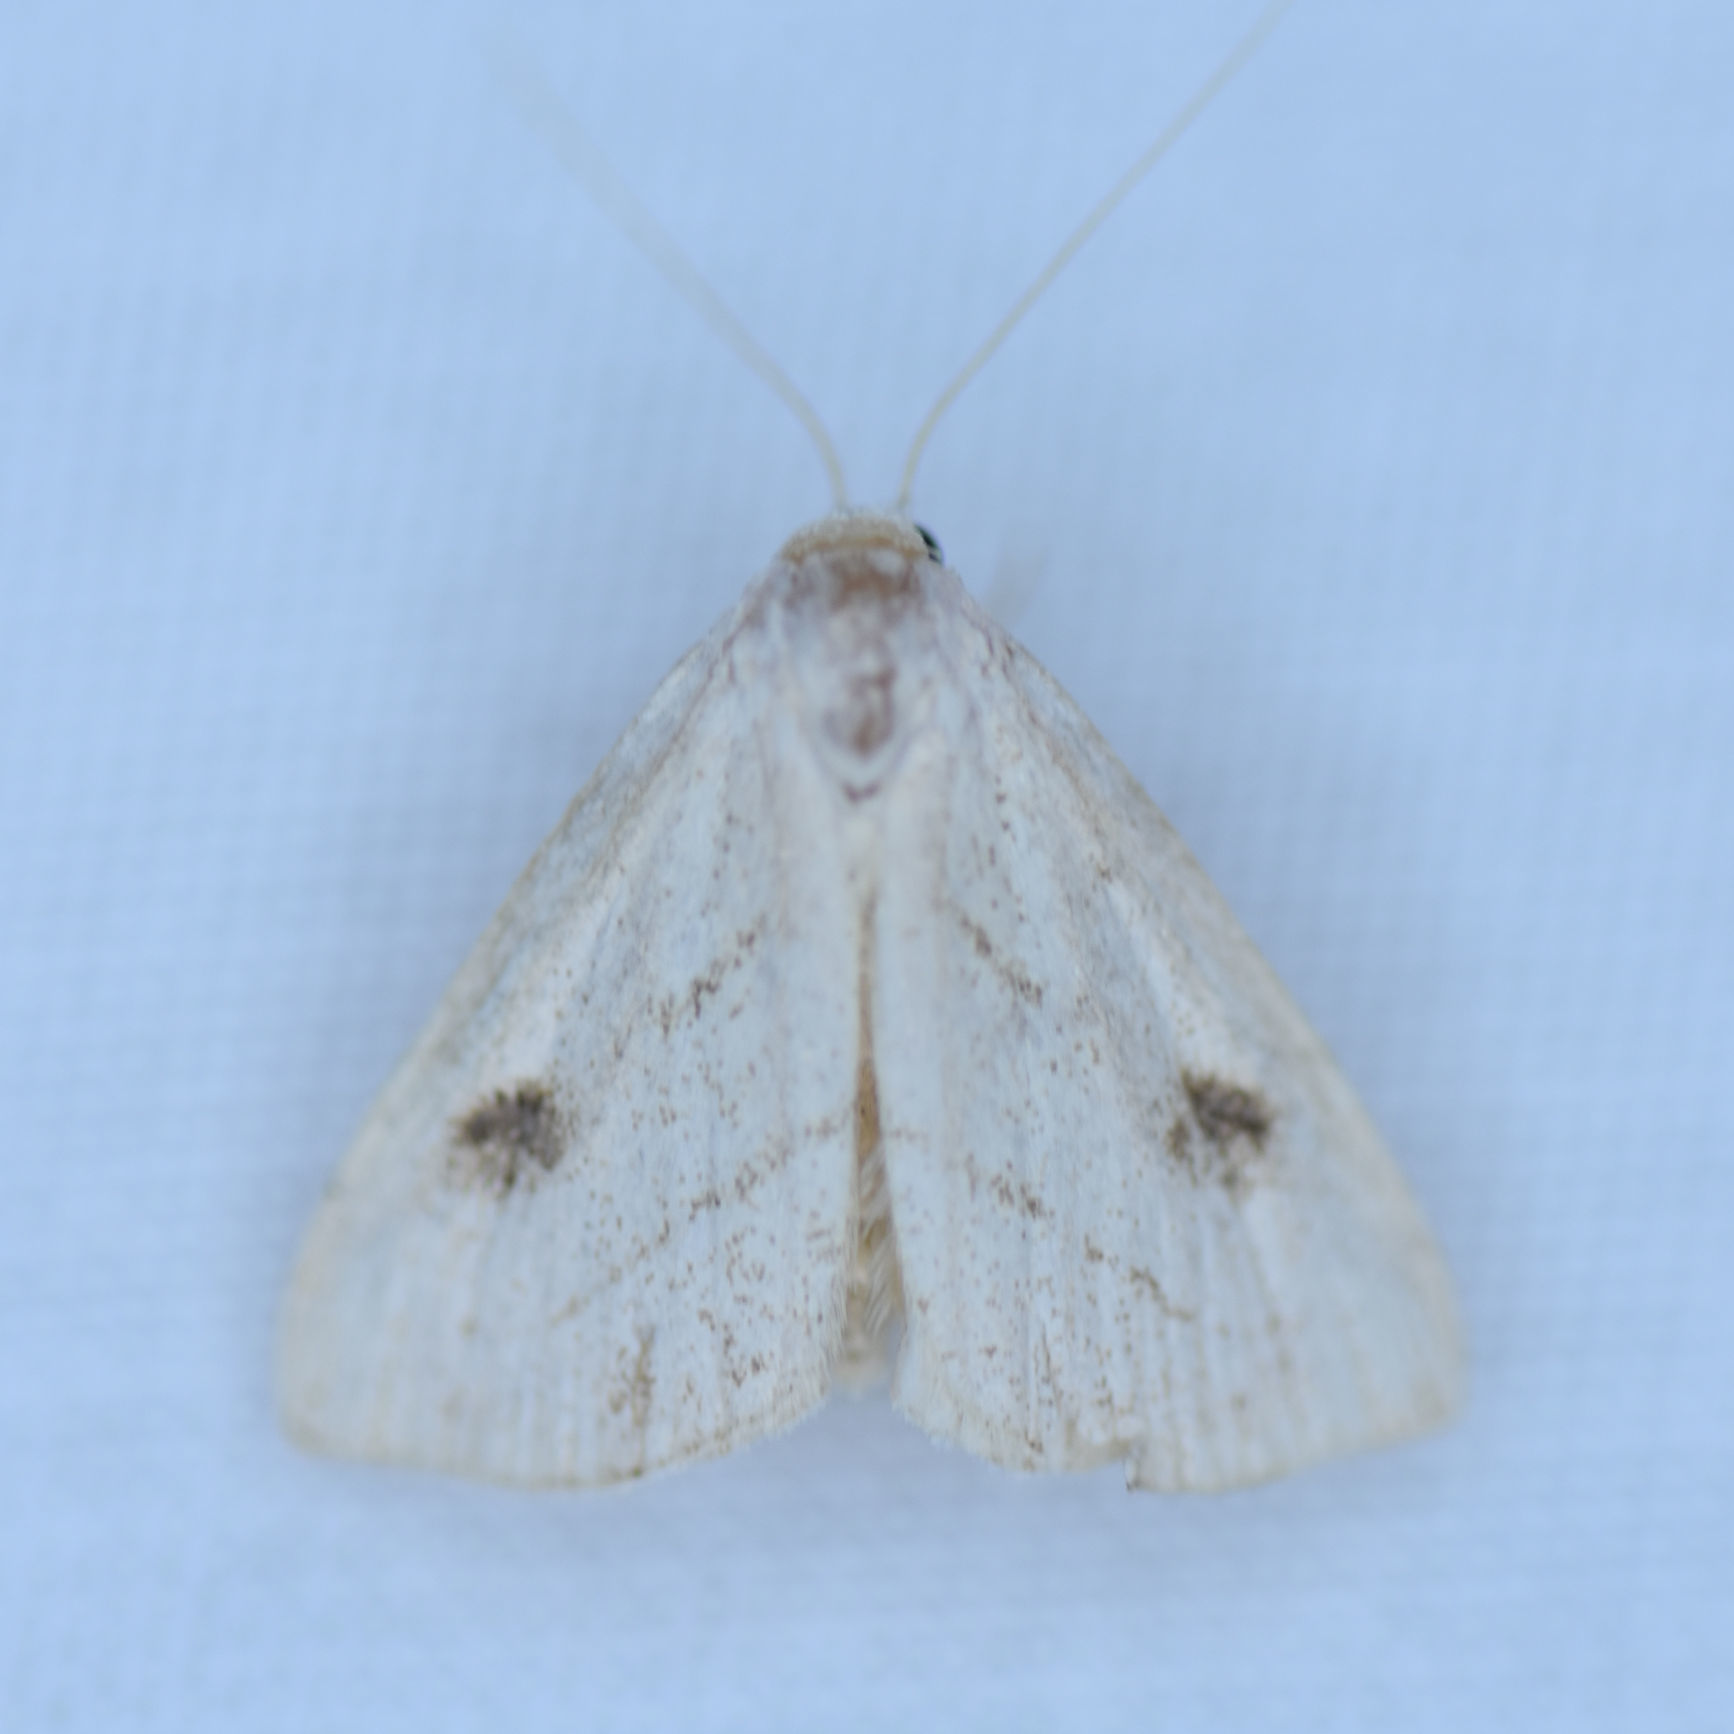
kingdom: Animalia
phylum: Arthropoda
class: Insecta
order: Lepidoptera
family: Erebidae
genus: Rivula
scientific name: Rivula propinqualis
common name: Spotted grass moth
